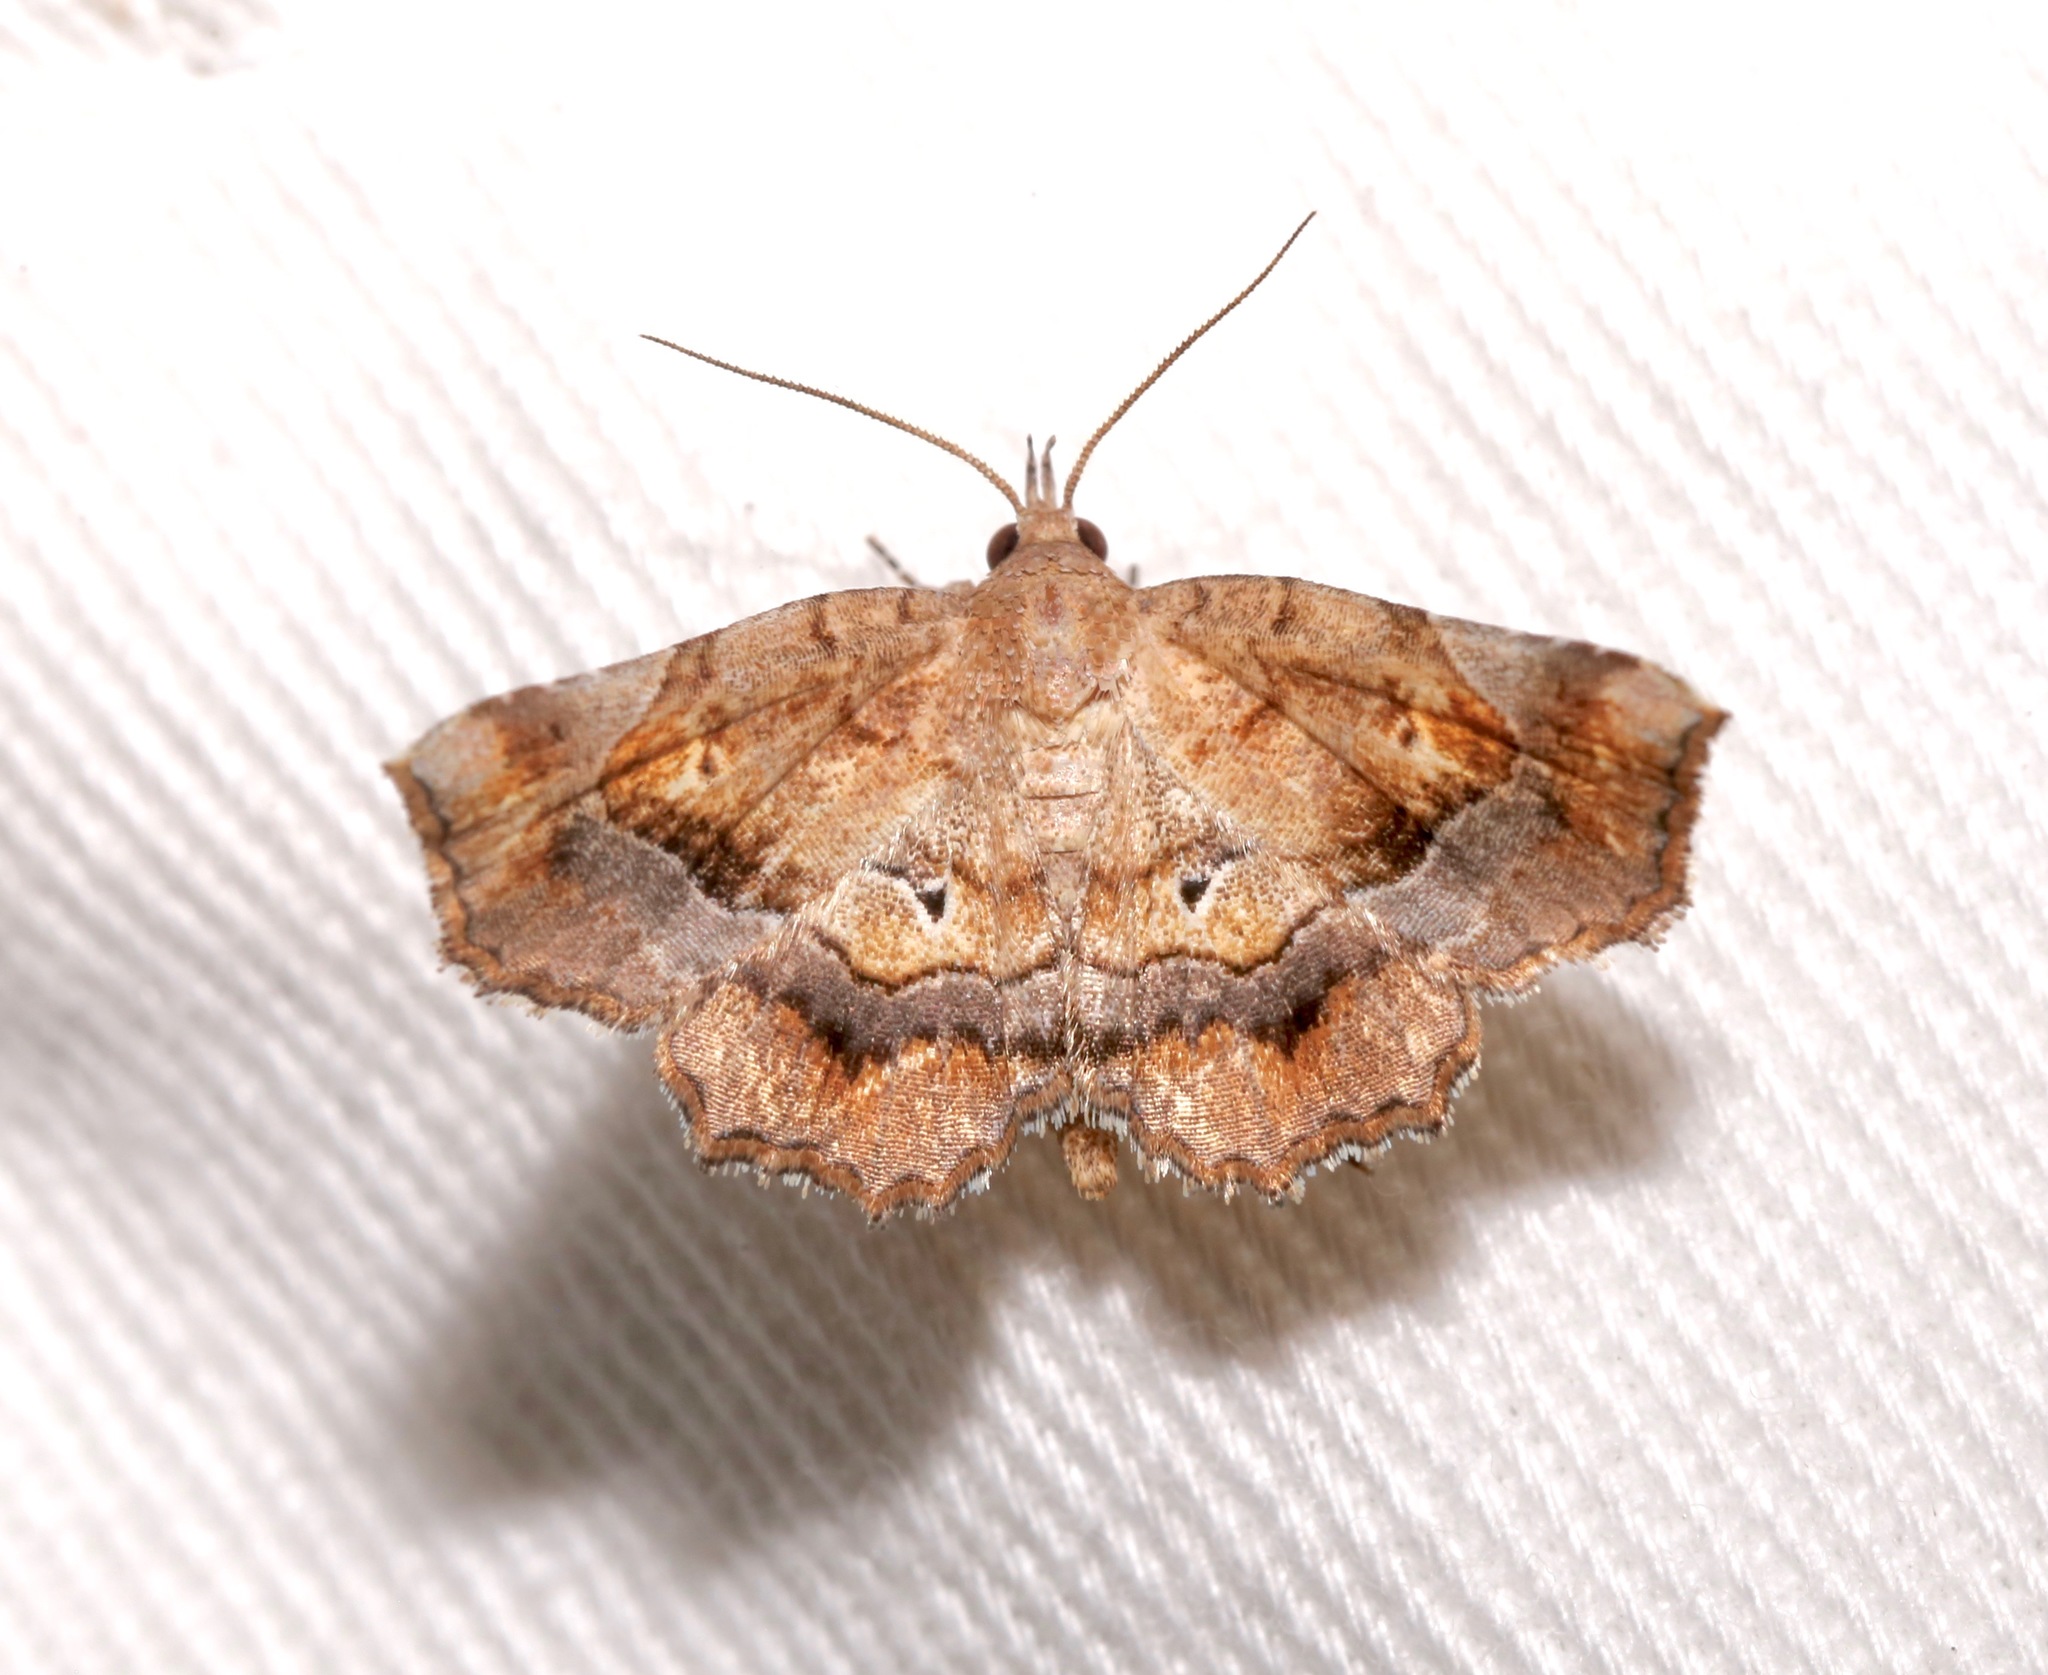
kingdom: Animalia
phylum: Arthropoda
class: Insecta
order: Lepidoptera
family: Erebidae
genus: Pangrapta
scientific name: Pangrapta decoralis
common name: Decorated owlet
